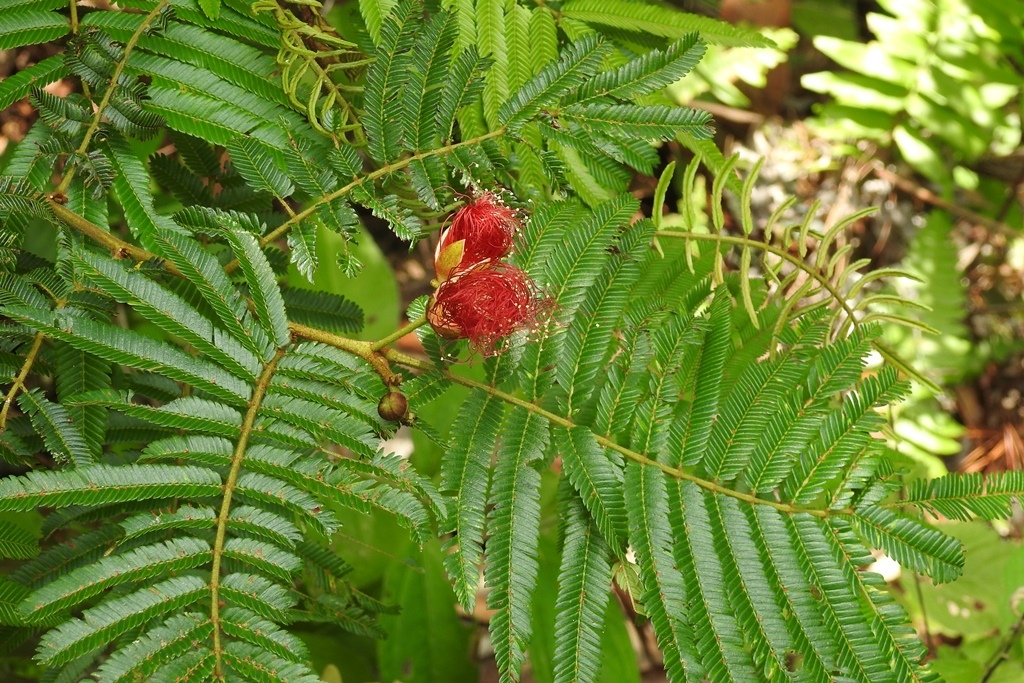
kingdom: Plantae
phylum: Tracheophyta
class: Magnoliopsida
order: Fabales
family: Fabaceae
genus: Calliandra
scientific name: Calliandra juzepczukii
